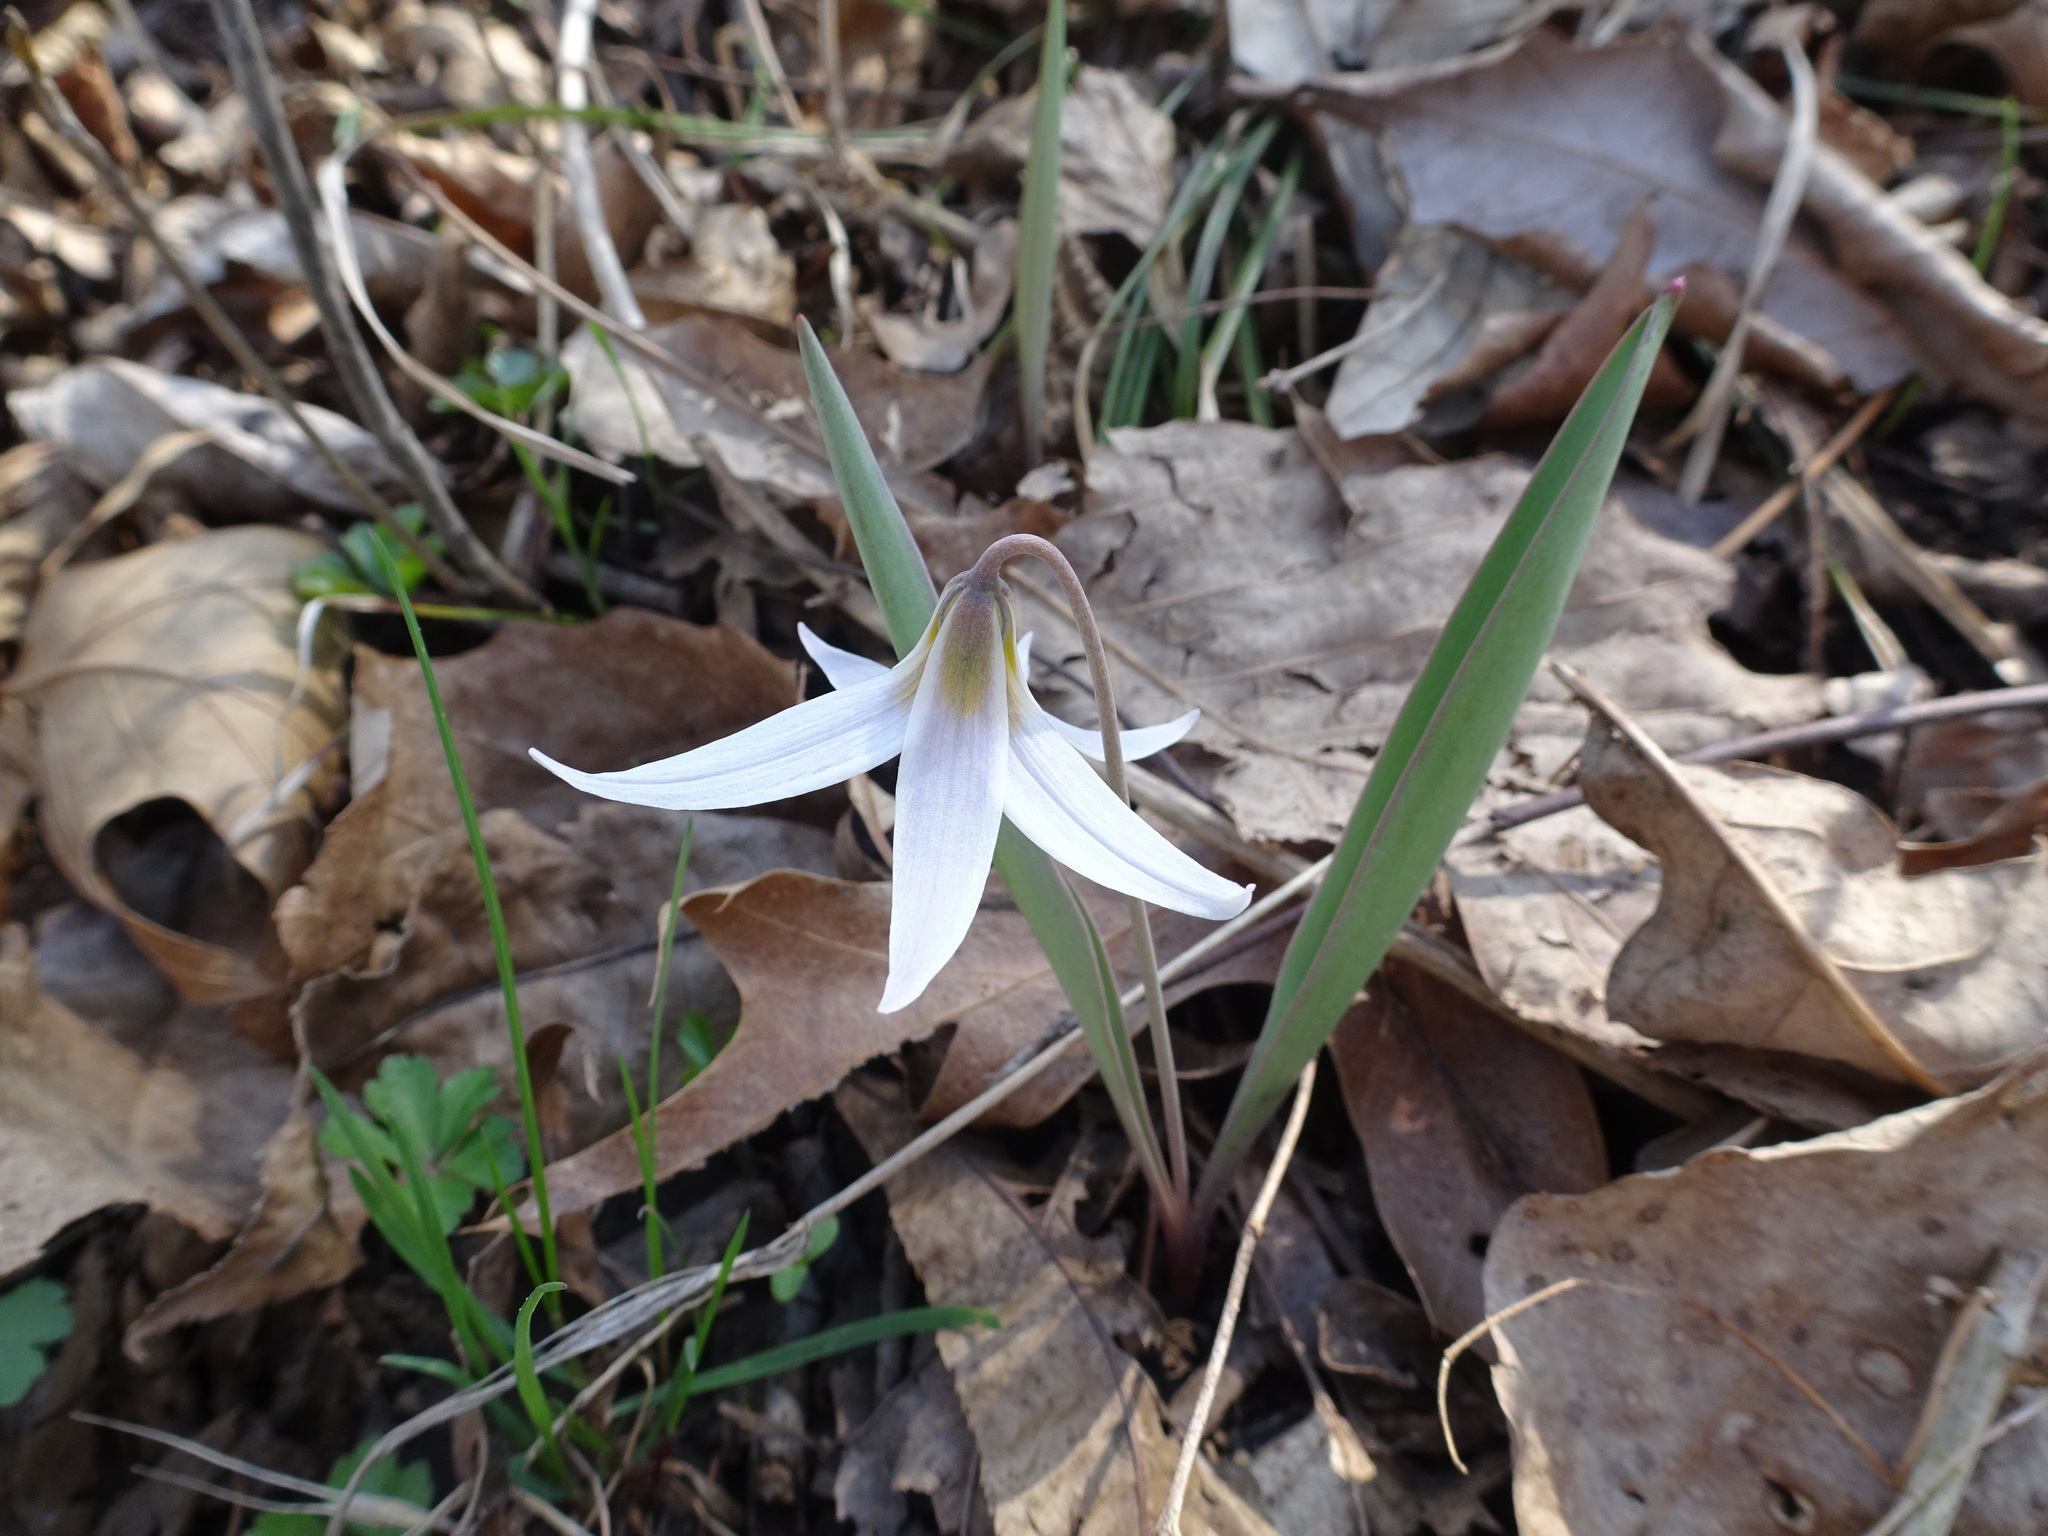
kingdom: Plantae
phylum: Tracheophyta
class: Liliopsida
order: Liliales
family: Liliaceae
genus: Erythronium
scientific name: Erythronium mesochoreum
